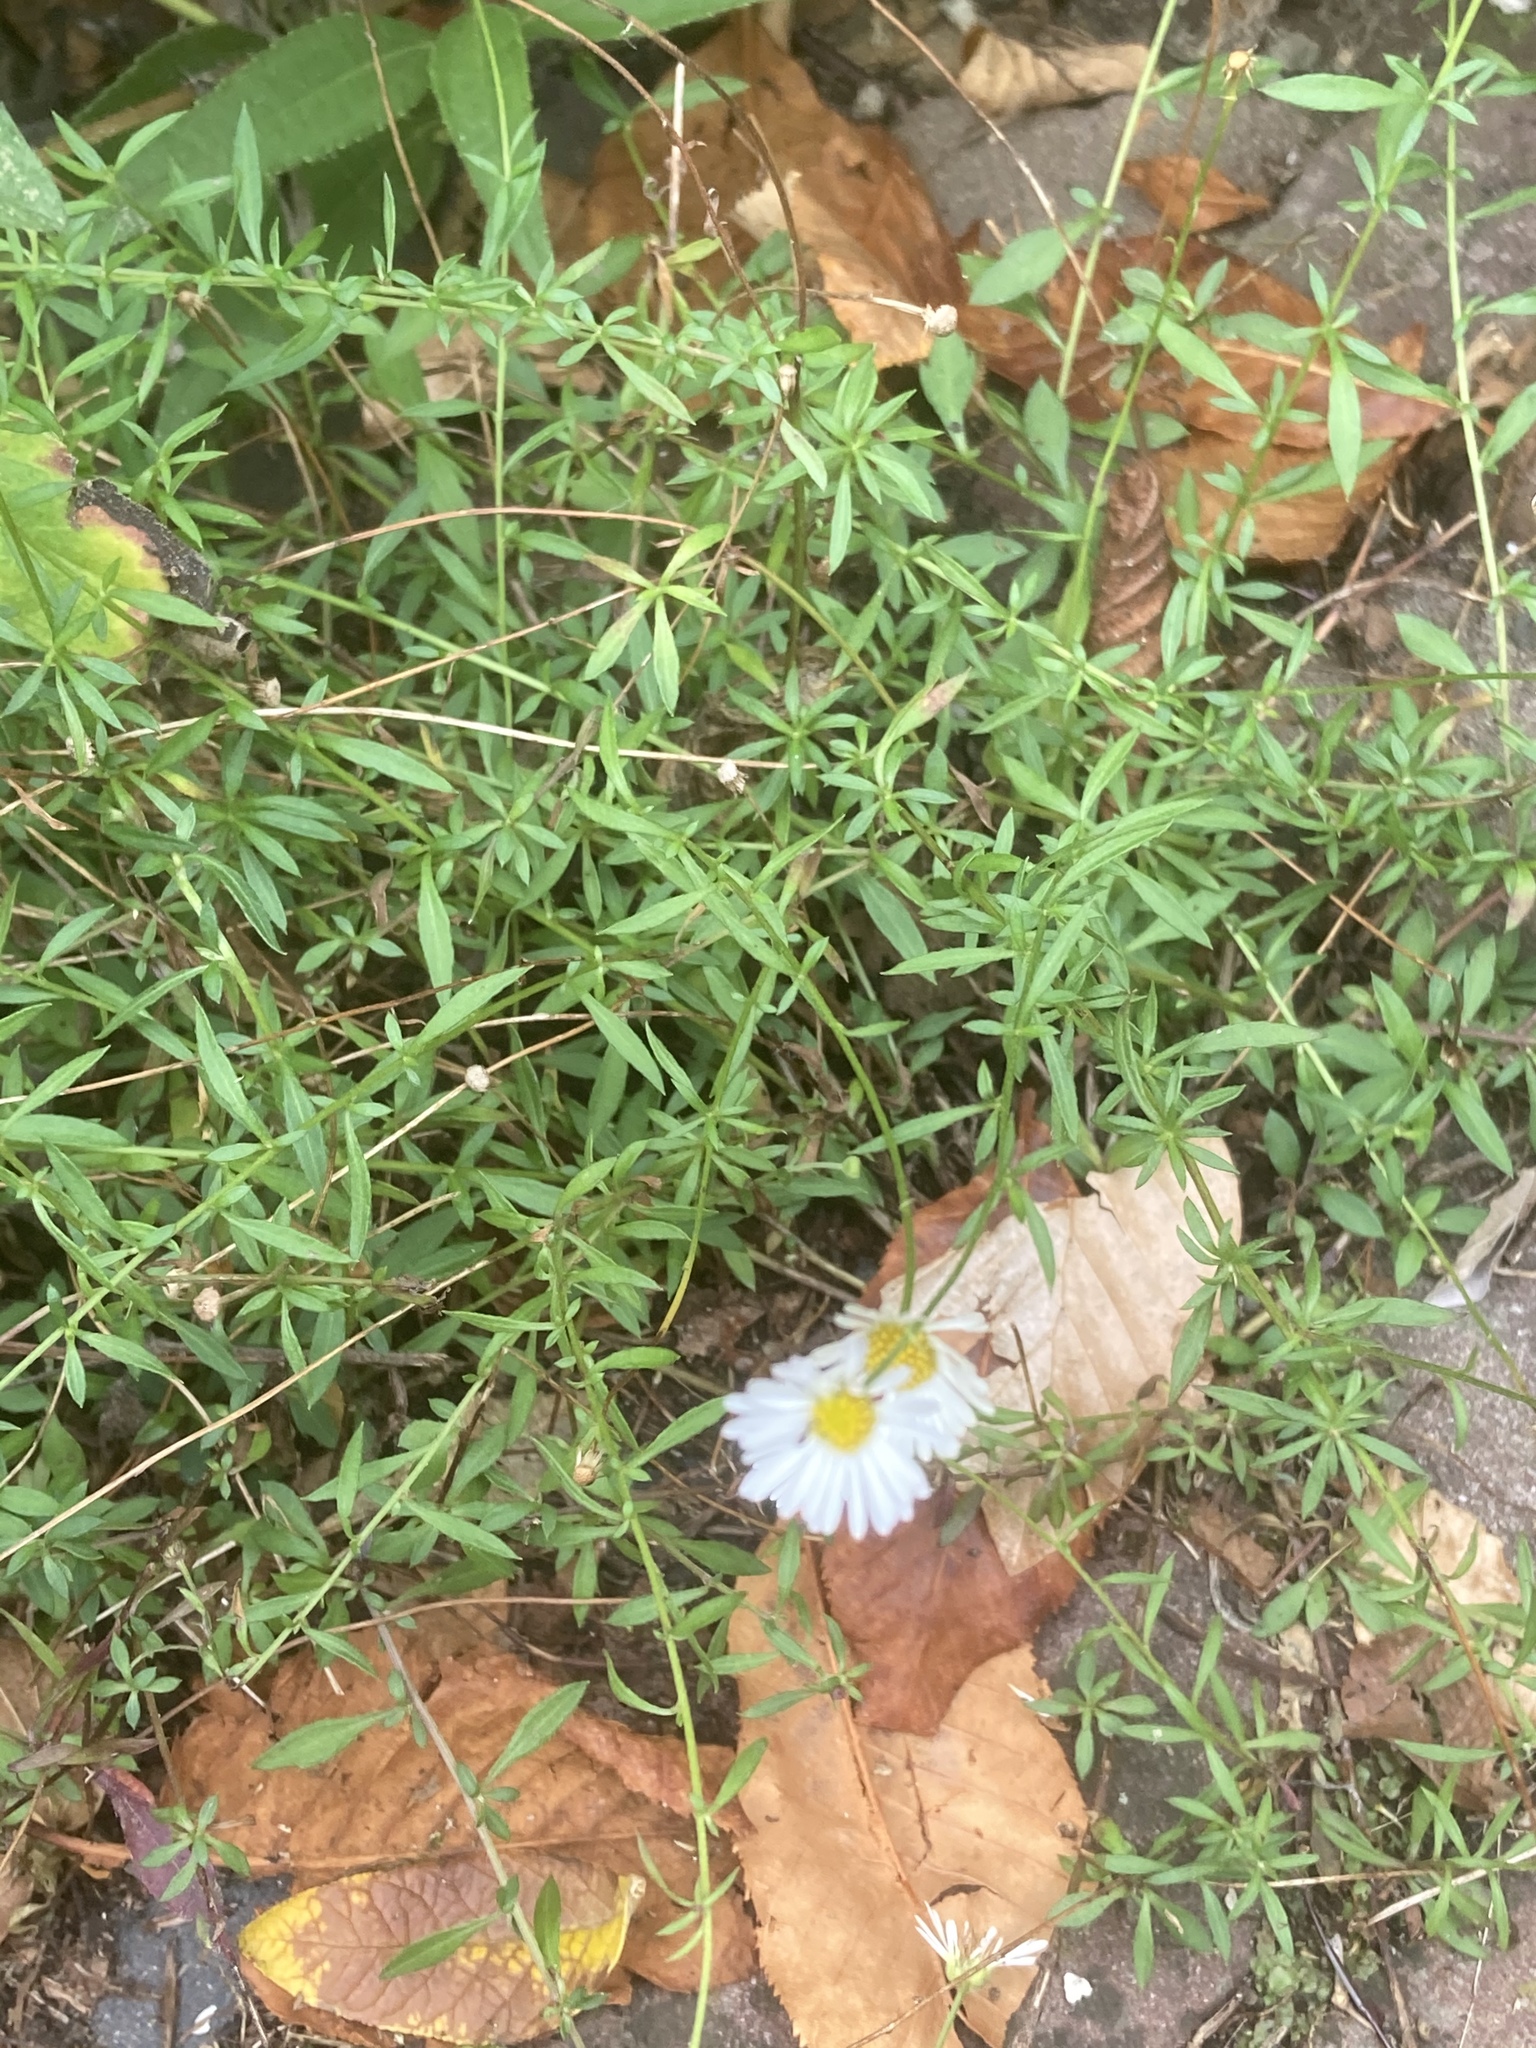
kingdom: Plantae
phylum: Tracheophyta
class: Magnoliopsida
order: Asterales
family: Asteraceae
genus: Erigeron
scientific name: Erigeron karvinskianus
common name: Mexican fleabane
